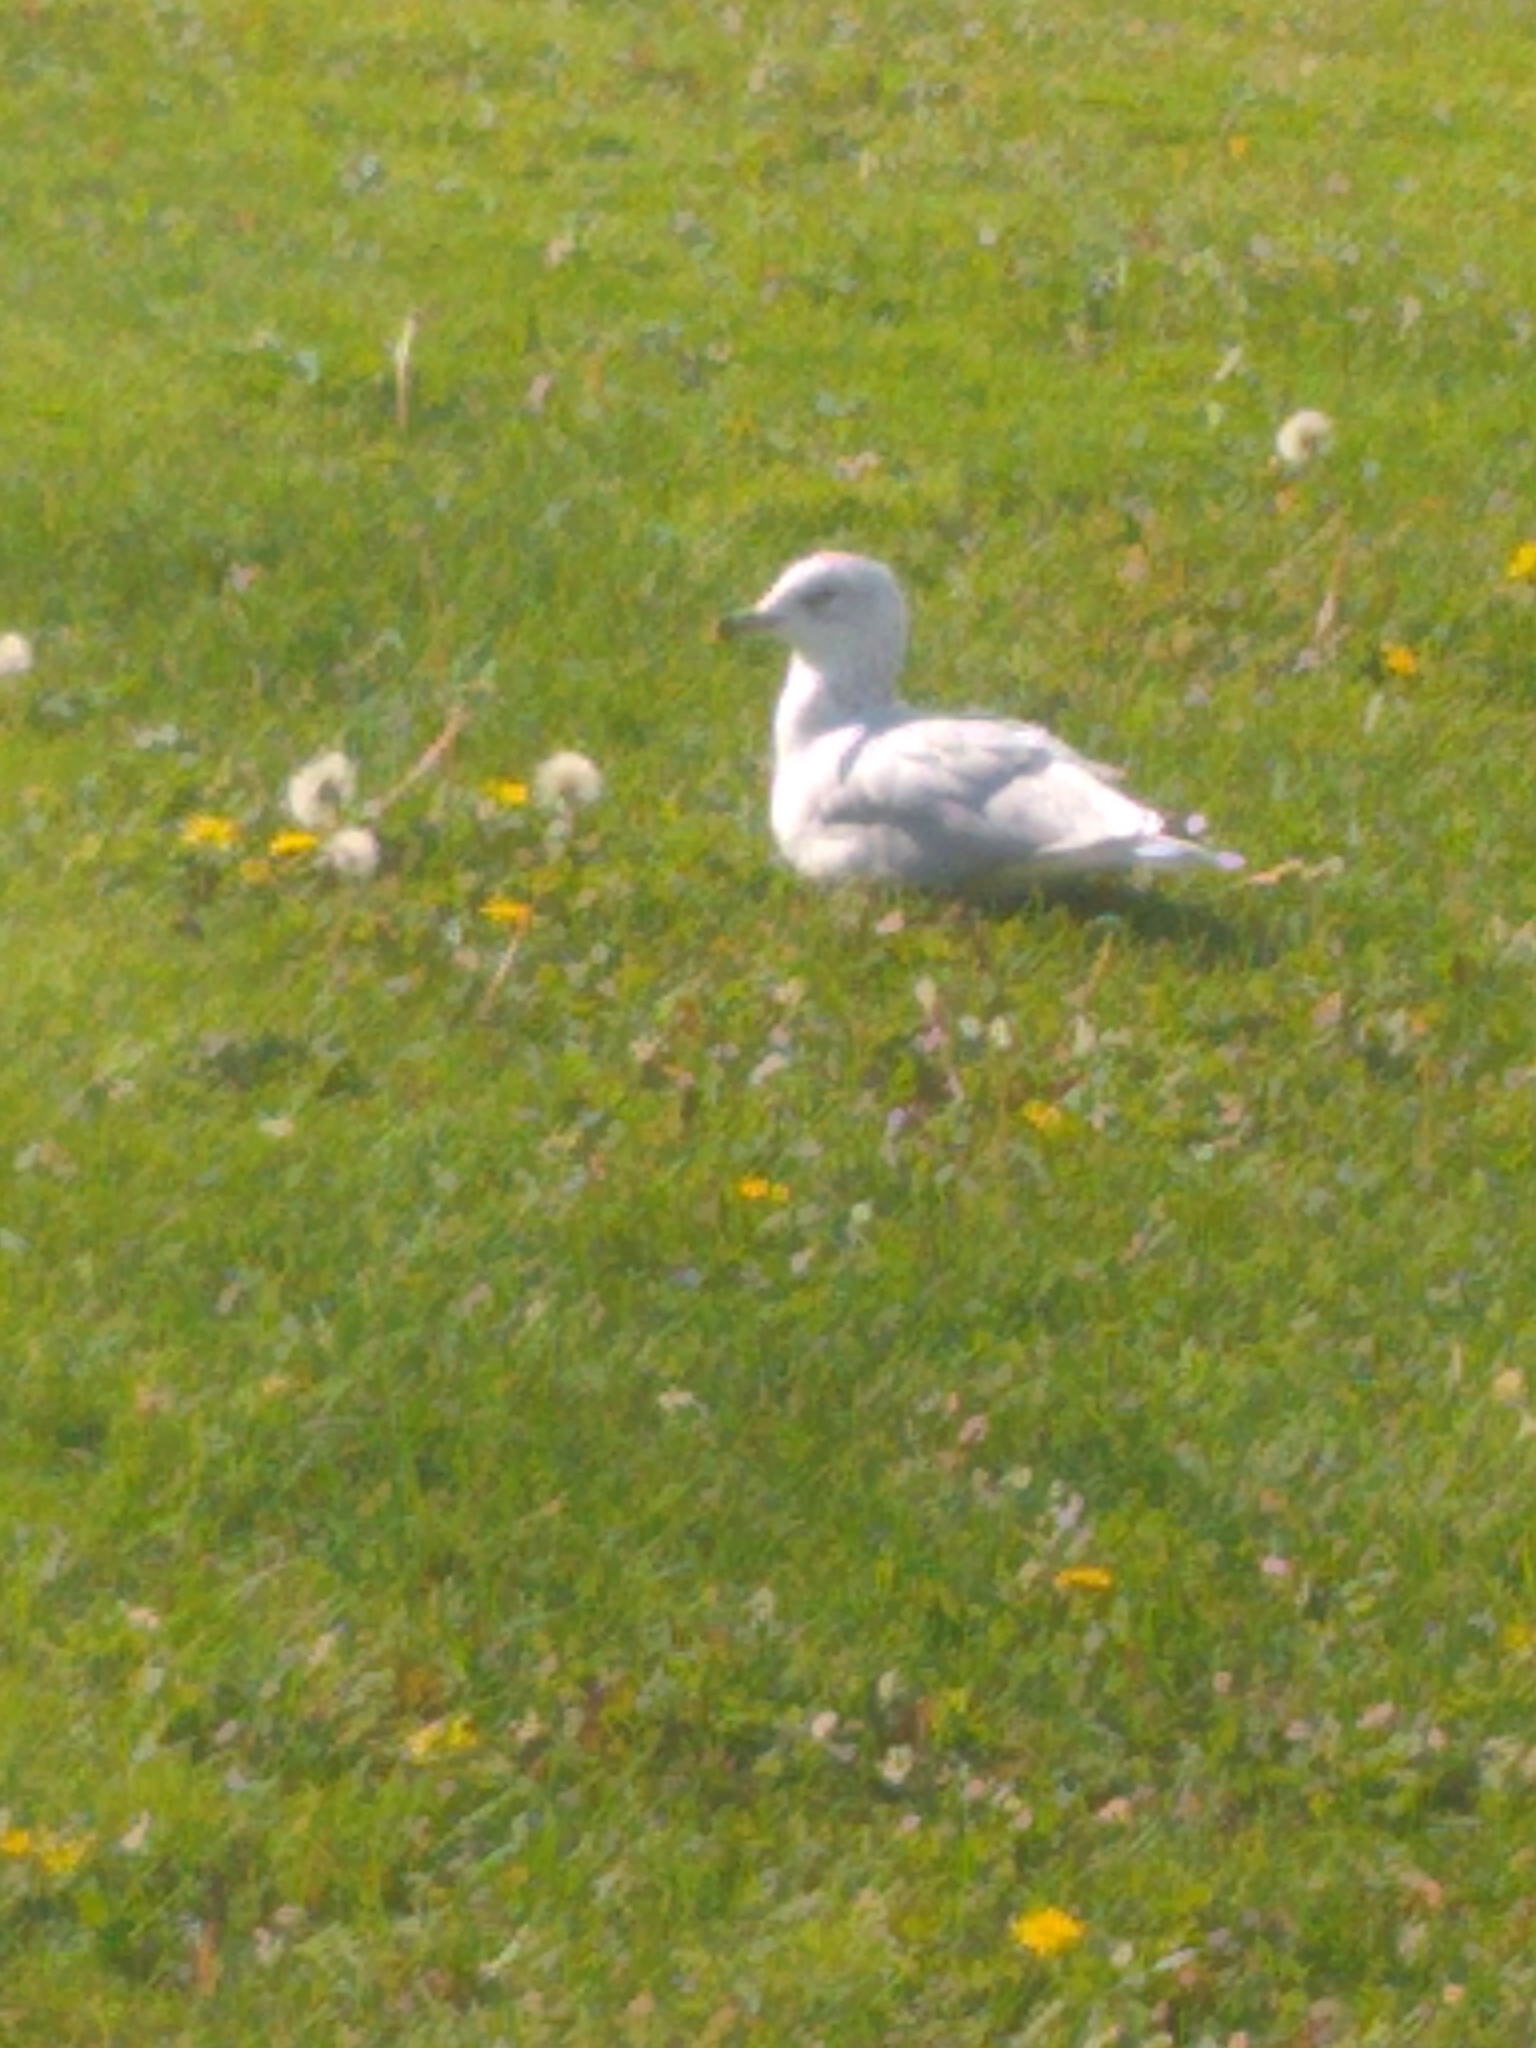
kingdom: Animalia
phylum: Chordata
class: Aves
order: Charadriiformes
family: Laridae
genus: Larus
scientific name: Larus delawarensis
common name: Ring-billed gull
